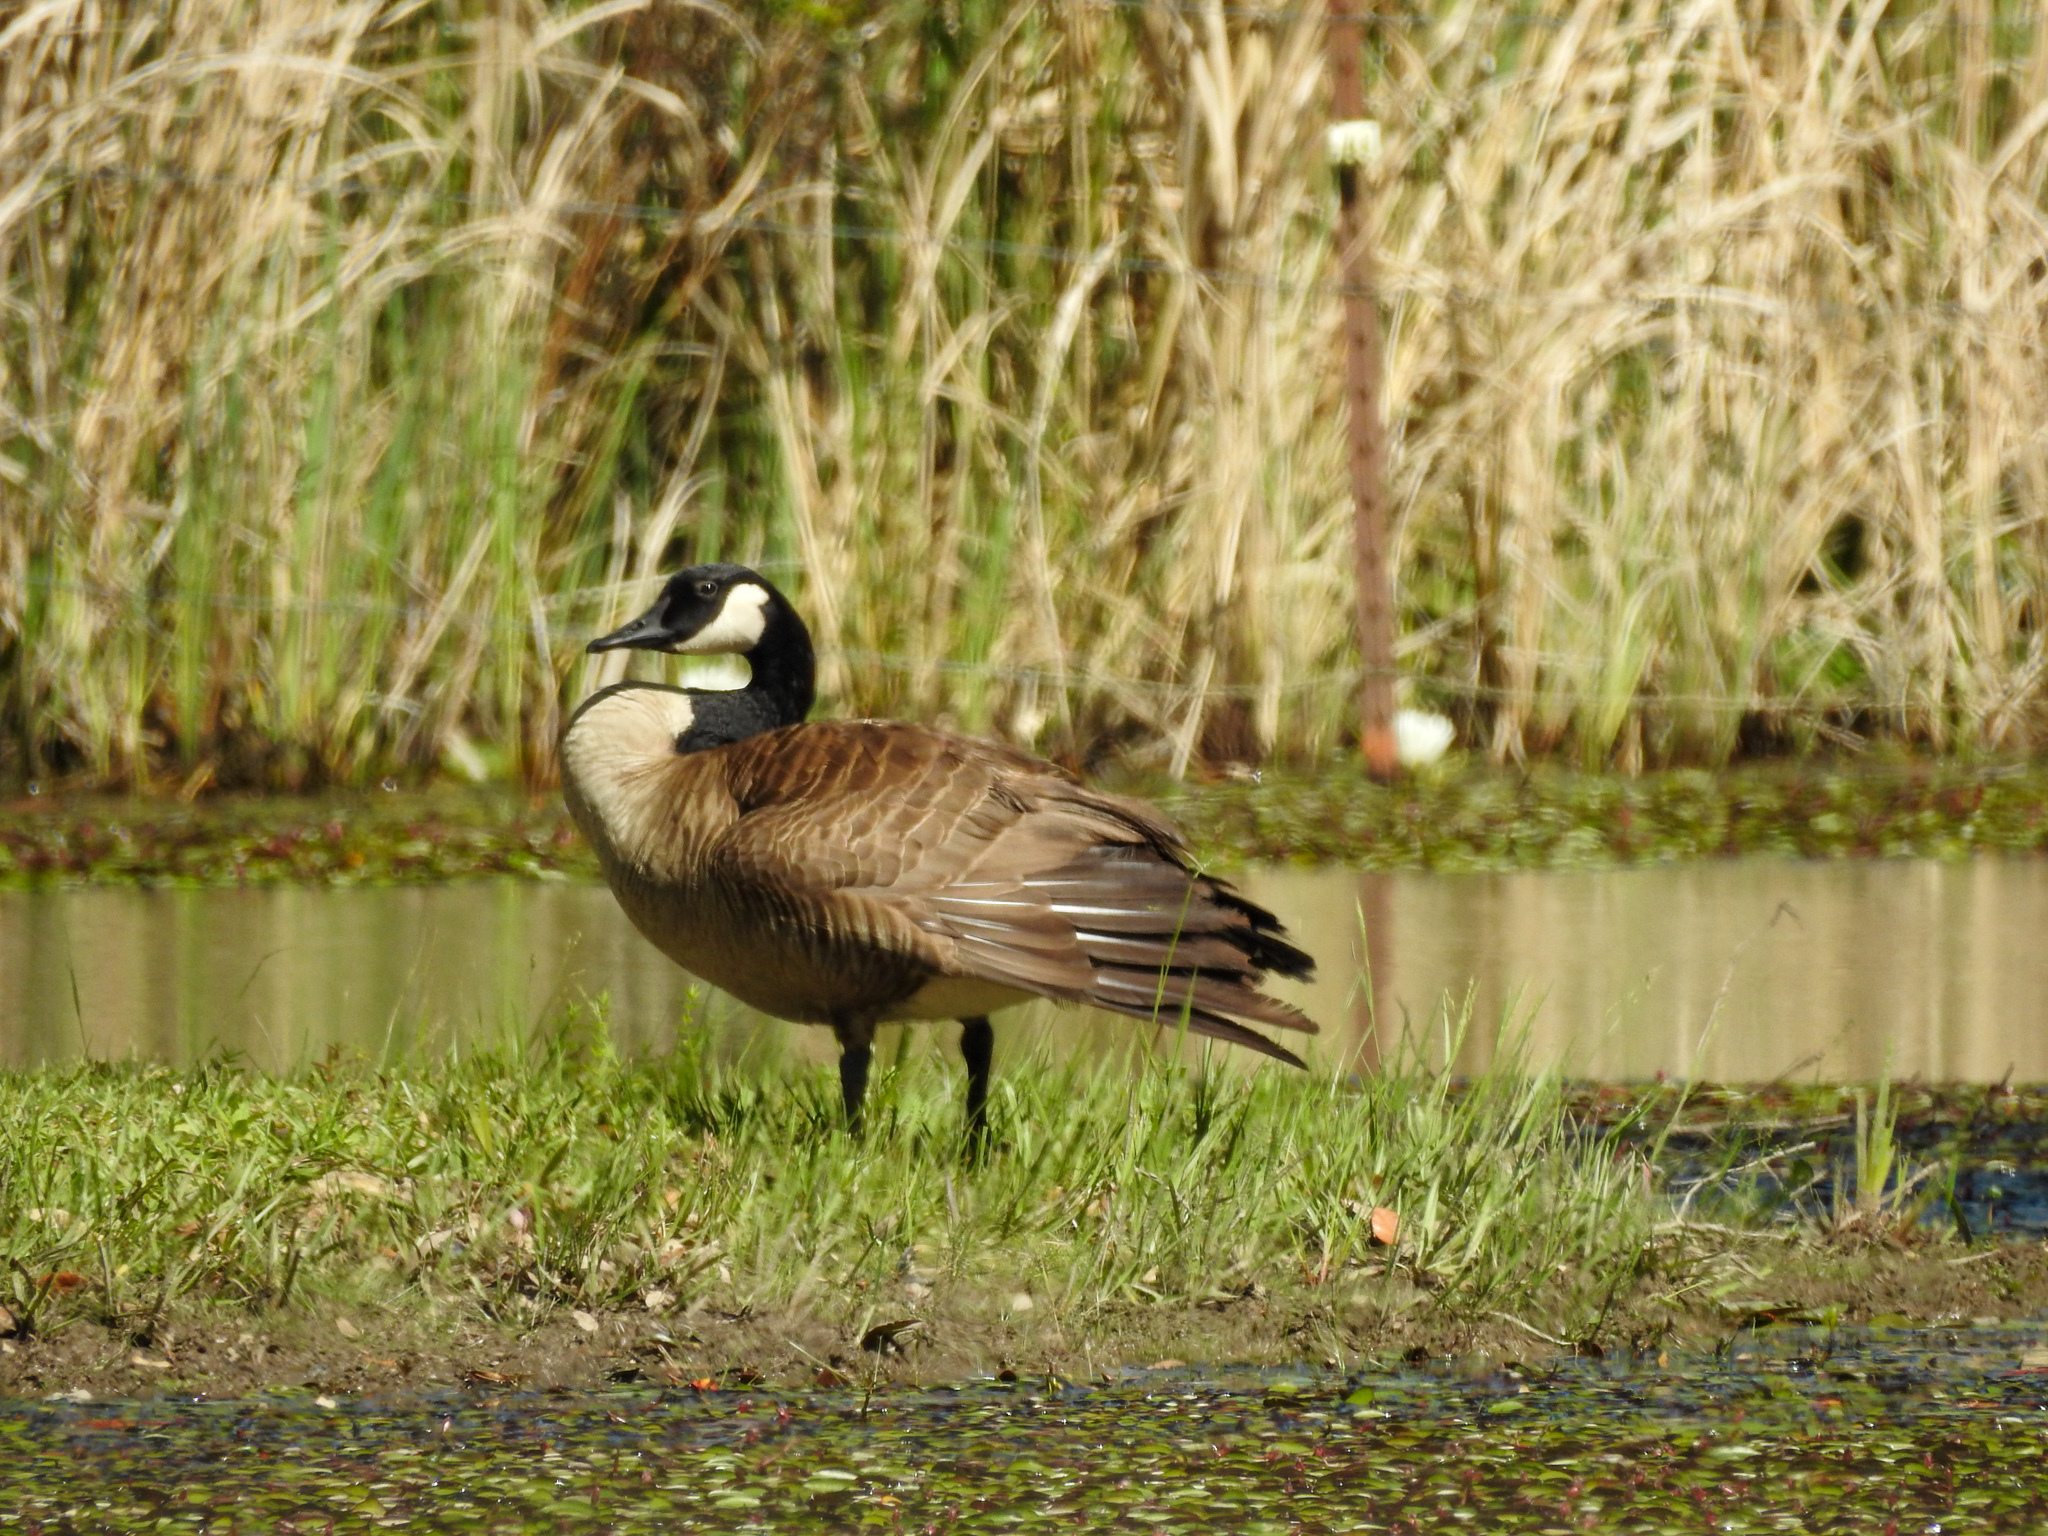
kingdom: Animalia
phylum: Chordata
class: Aves
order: Anseriformes
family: Anatidae
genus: Branta
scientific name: Branta canadensis
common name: Canada goose
